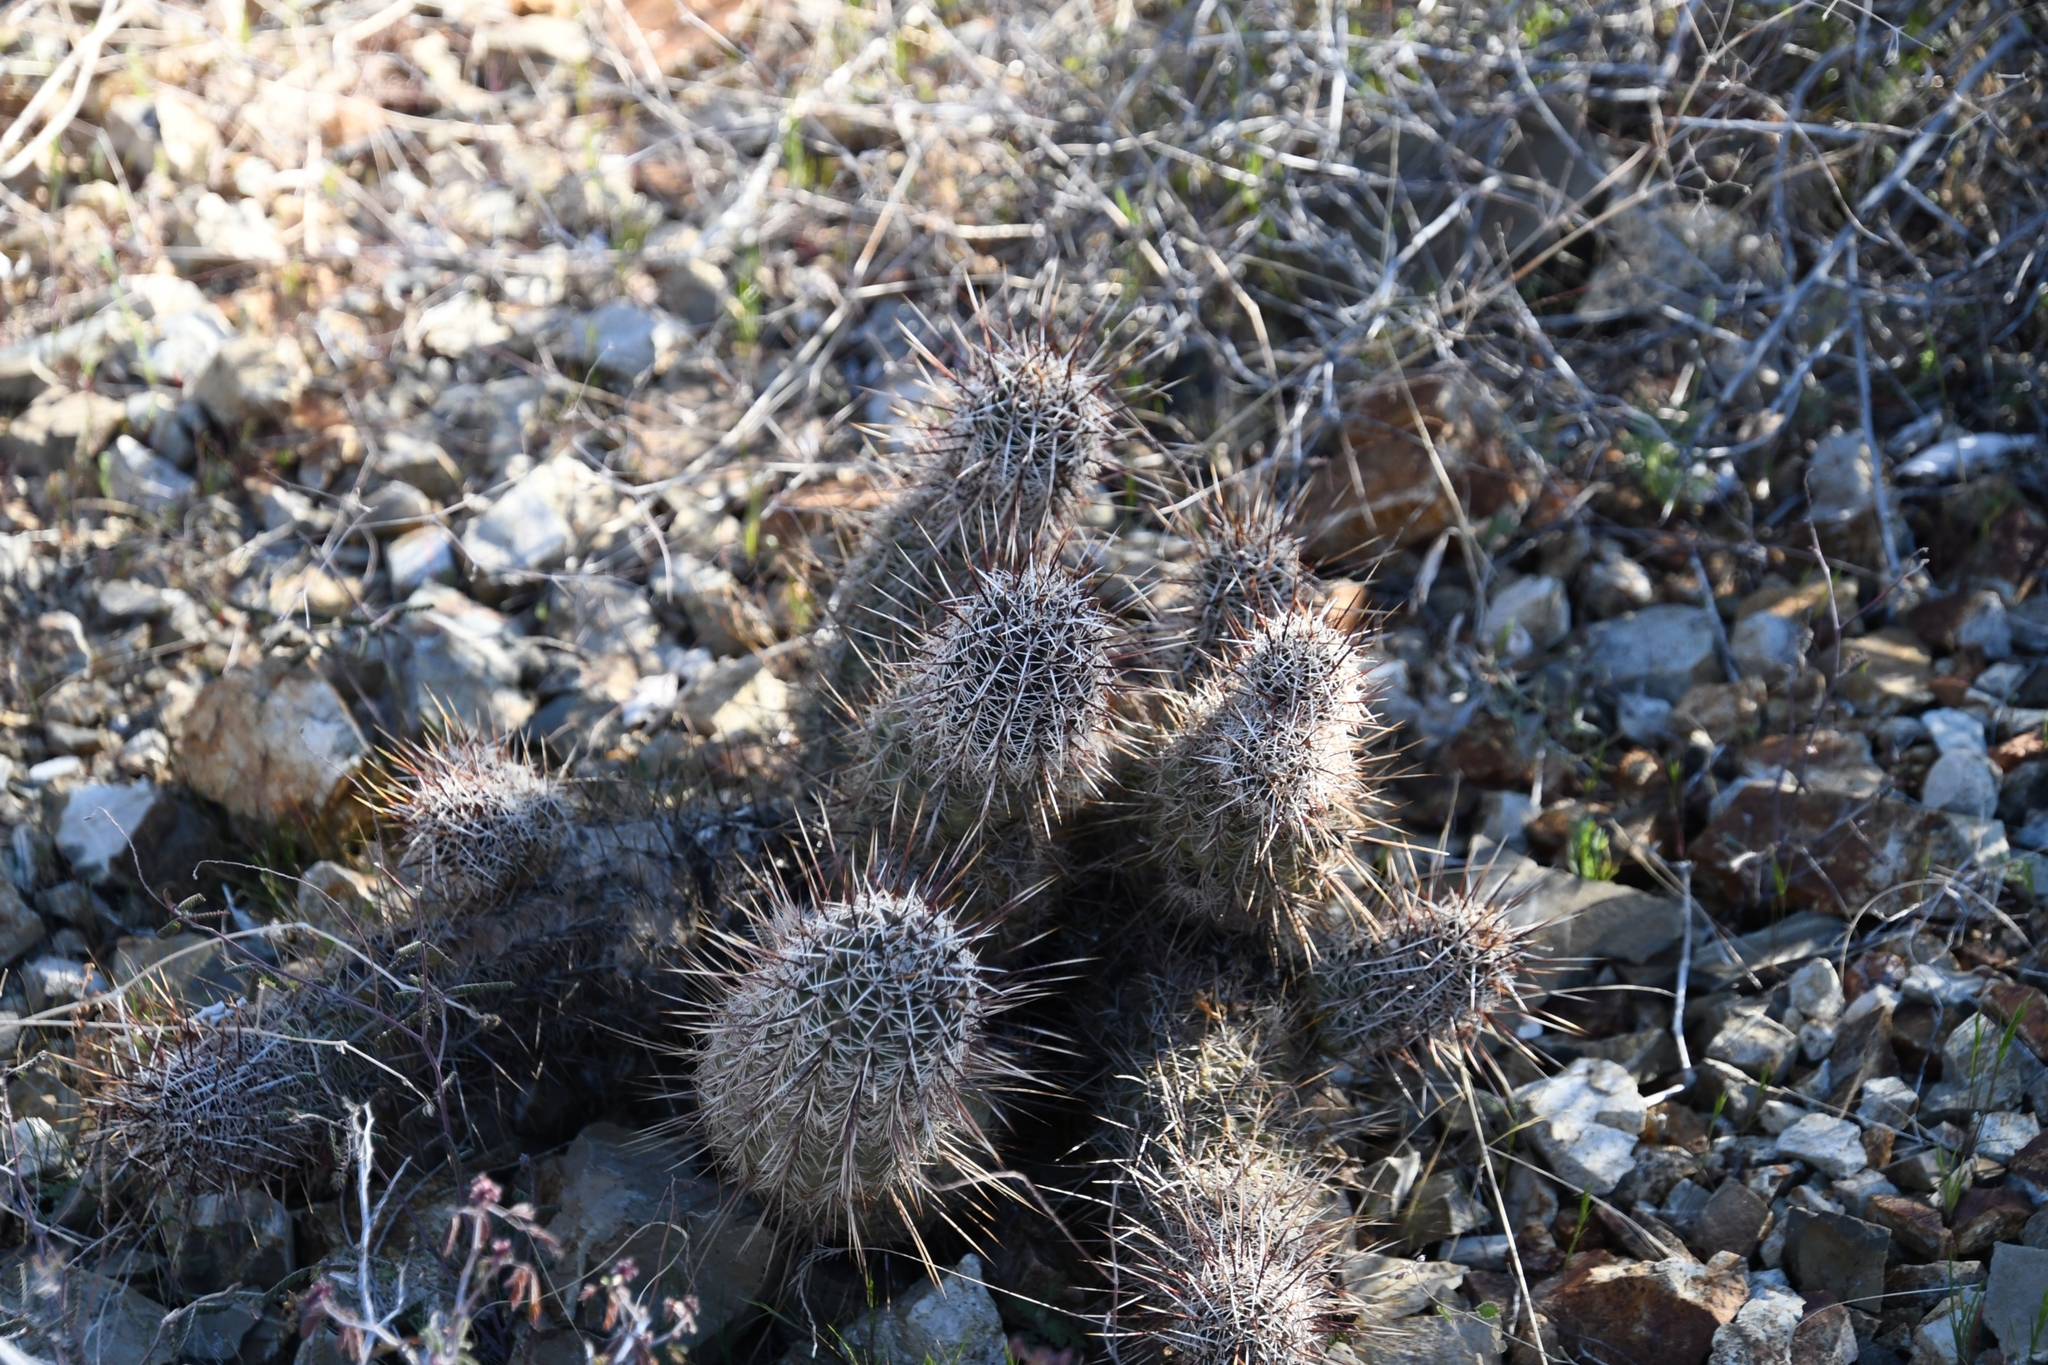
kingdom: Plantae
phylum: Tracheophyta
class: Magnoliopsida
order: Caryophyllales
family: Cactaceae
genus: Echinocereus
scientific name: Echinocereus fasciculatus
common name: Bundle hedgehog
